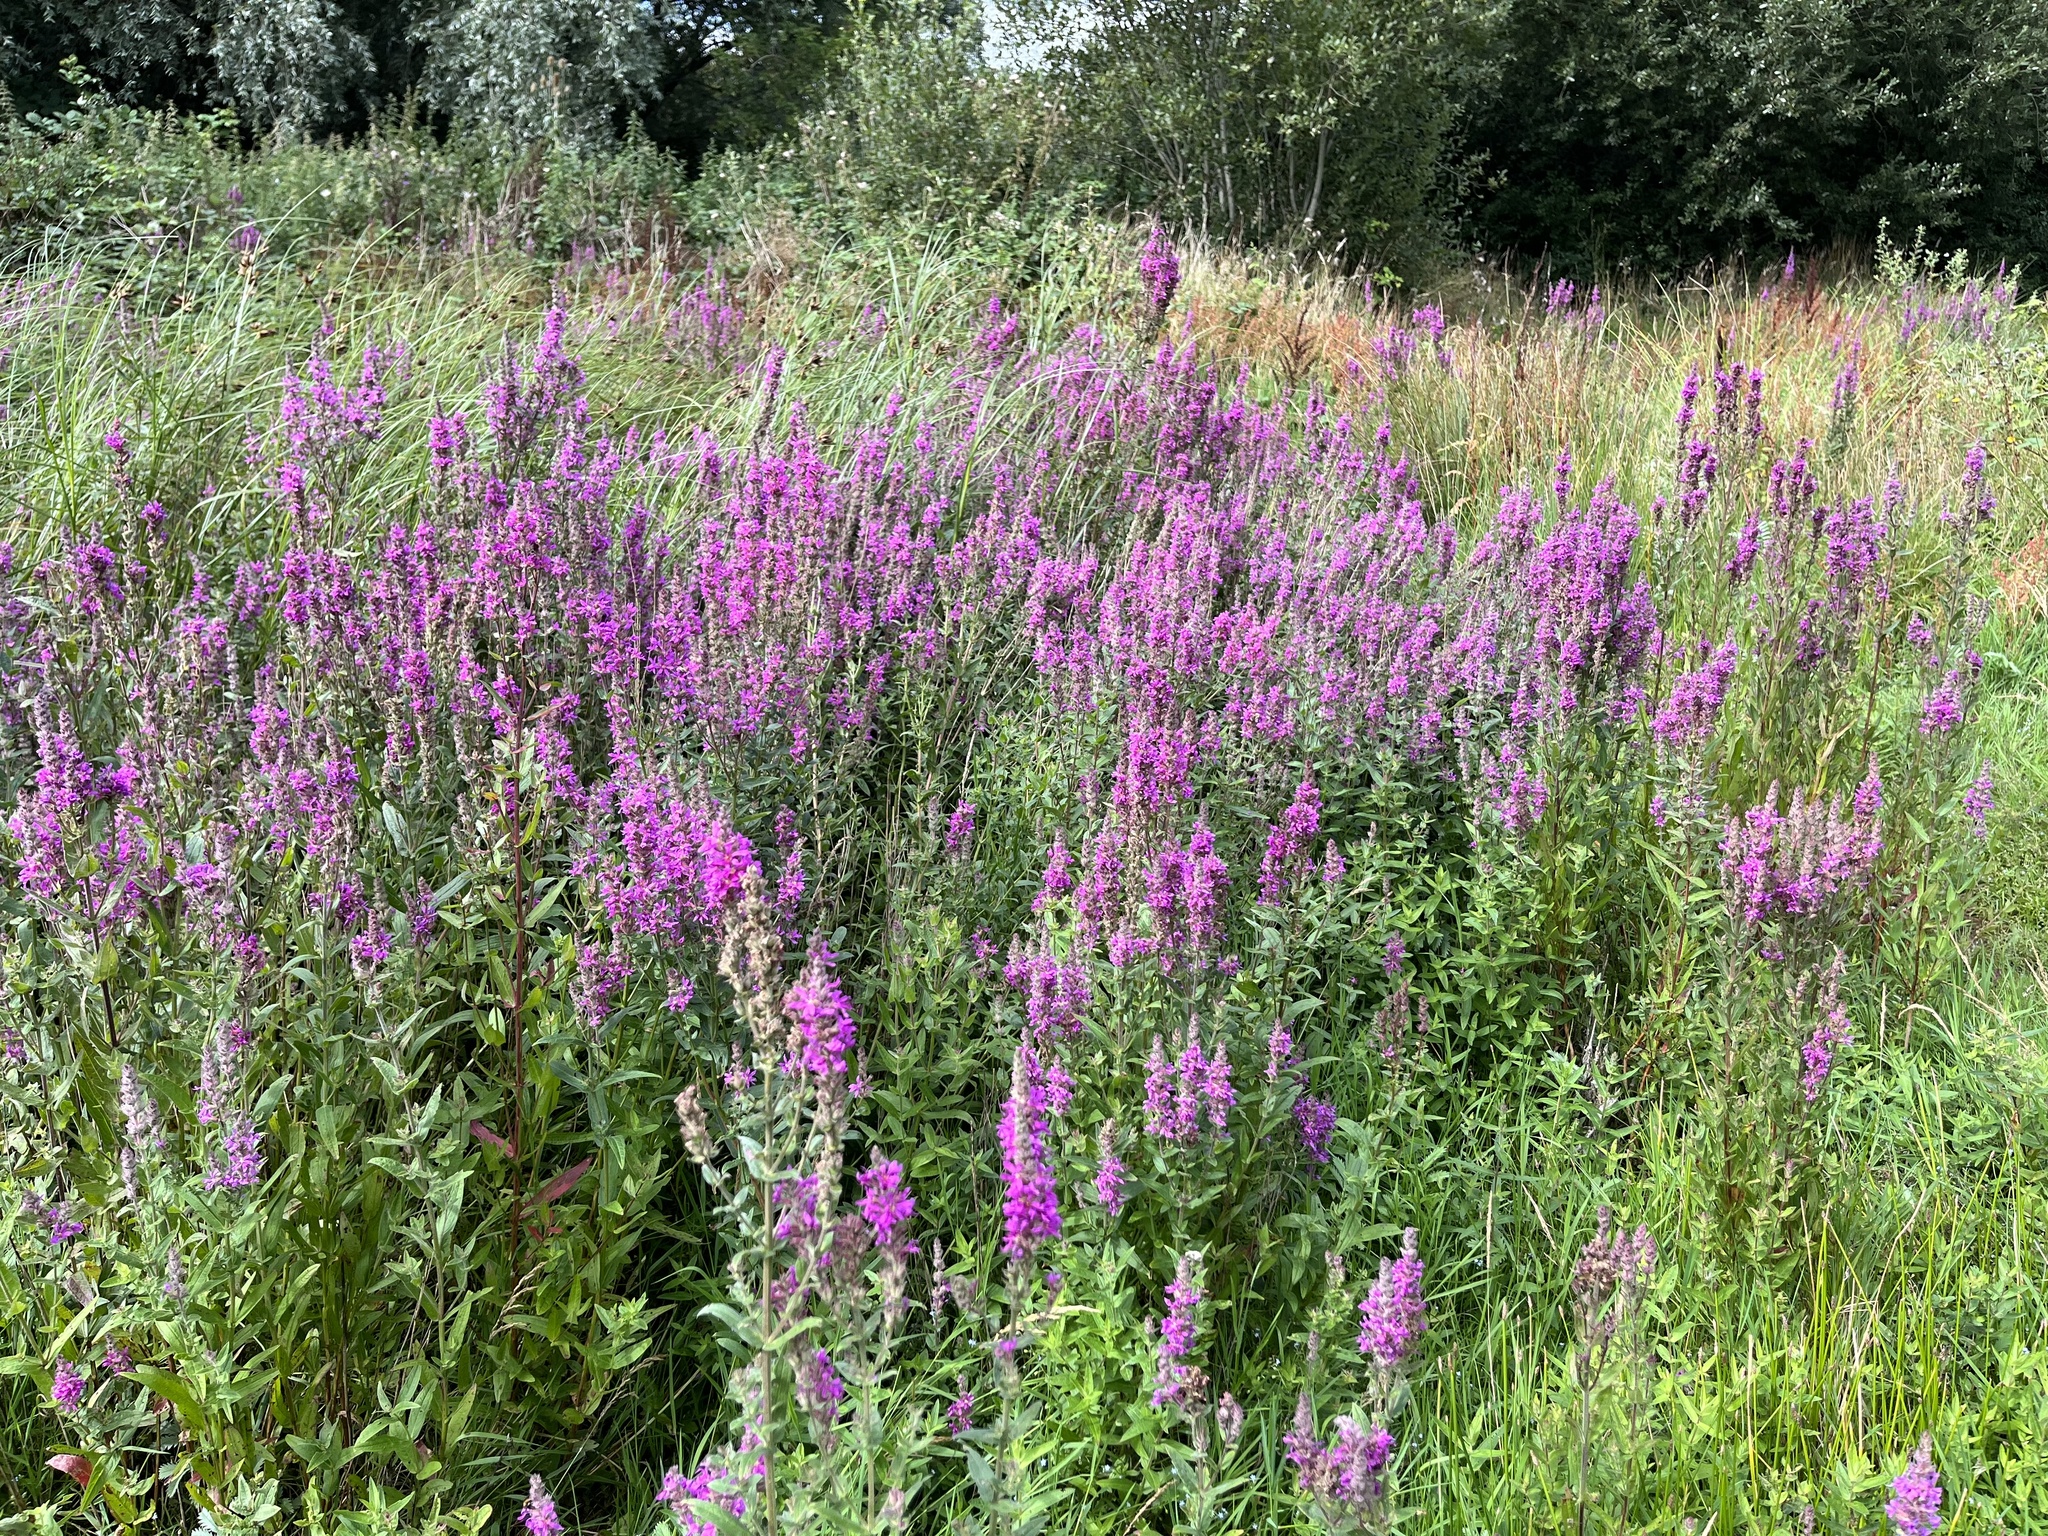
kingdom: Plantae
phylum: Tracheophyta
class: Magnoliopsida
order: Myrtales
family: Lythraceae
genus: Lythrum
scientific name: Lythrum salicaria
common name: Purple loosestrife
